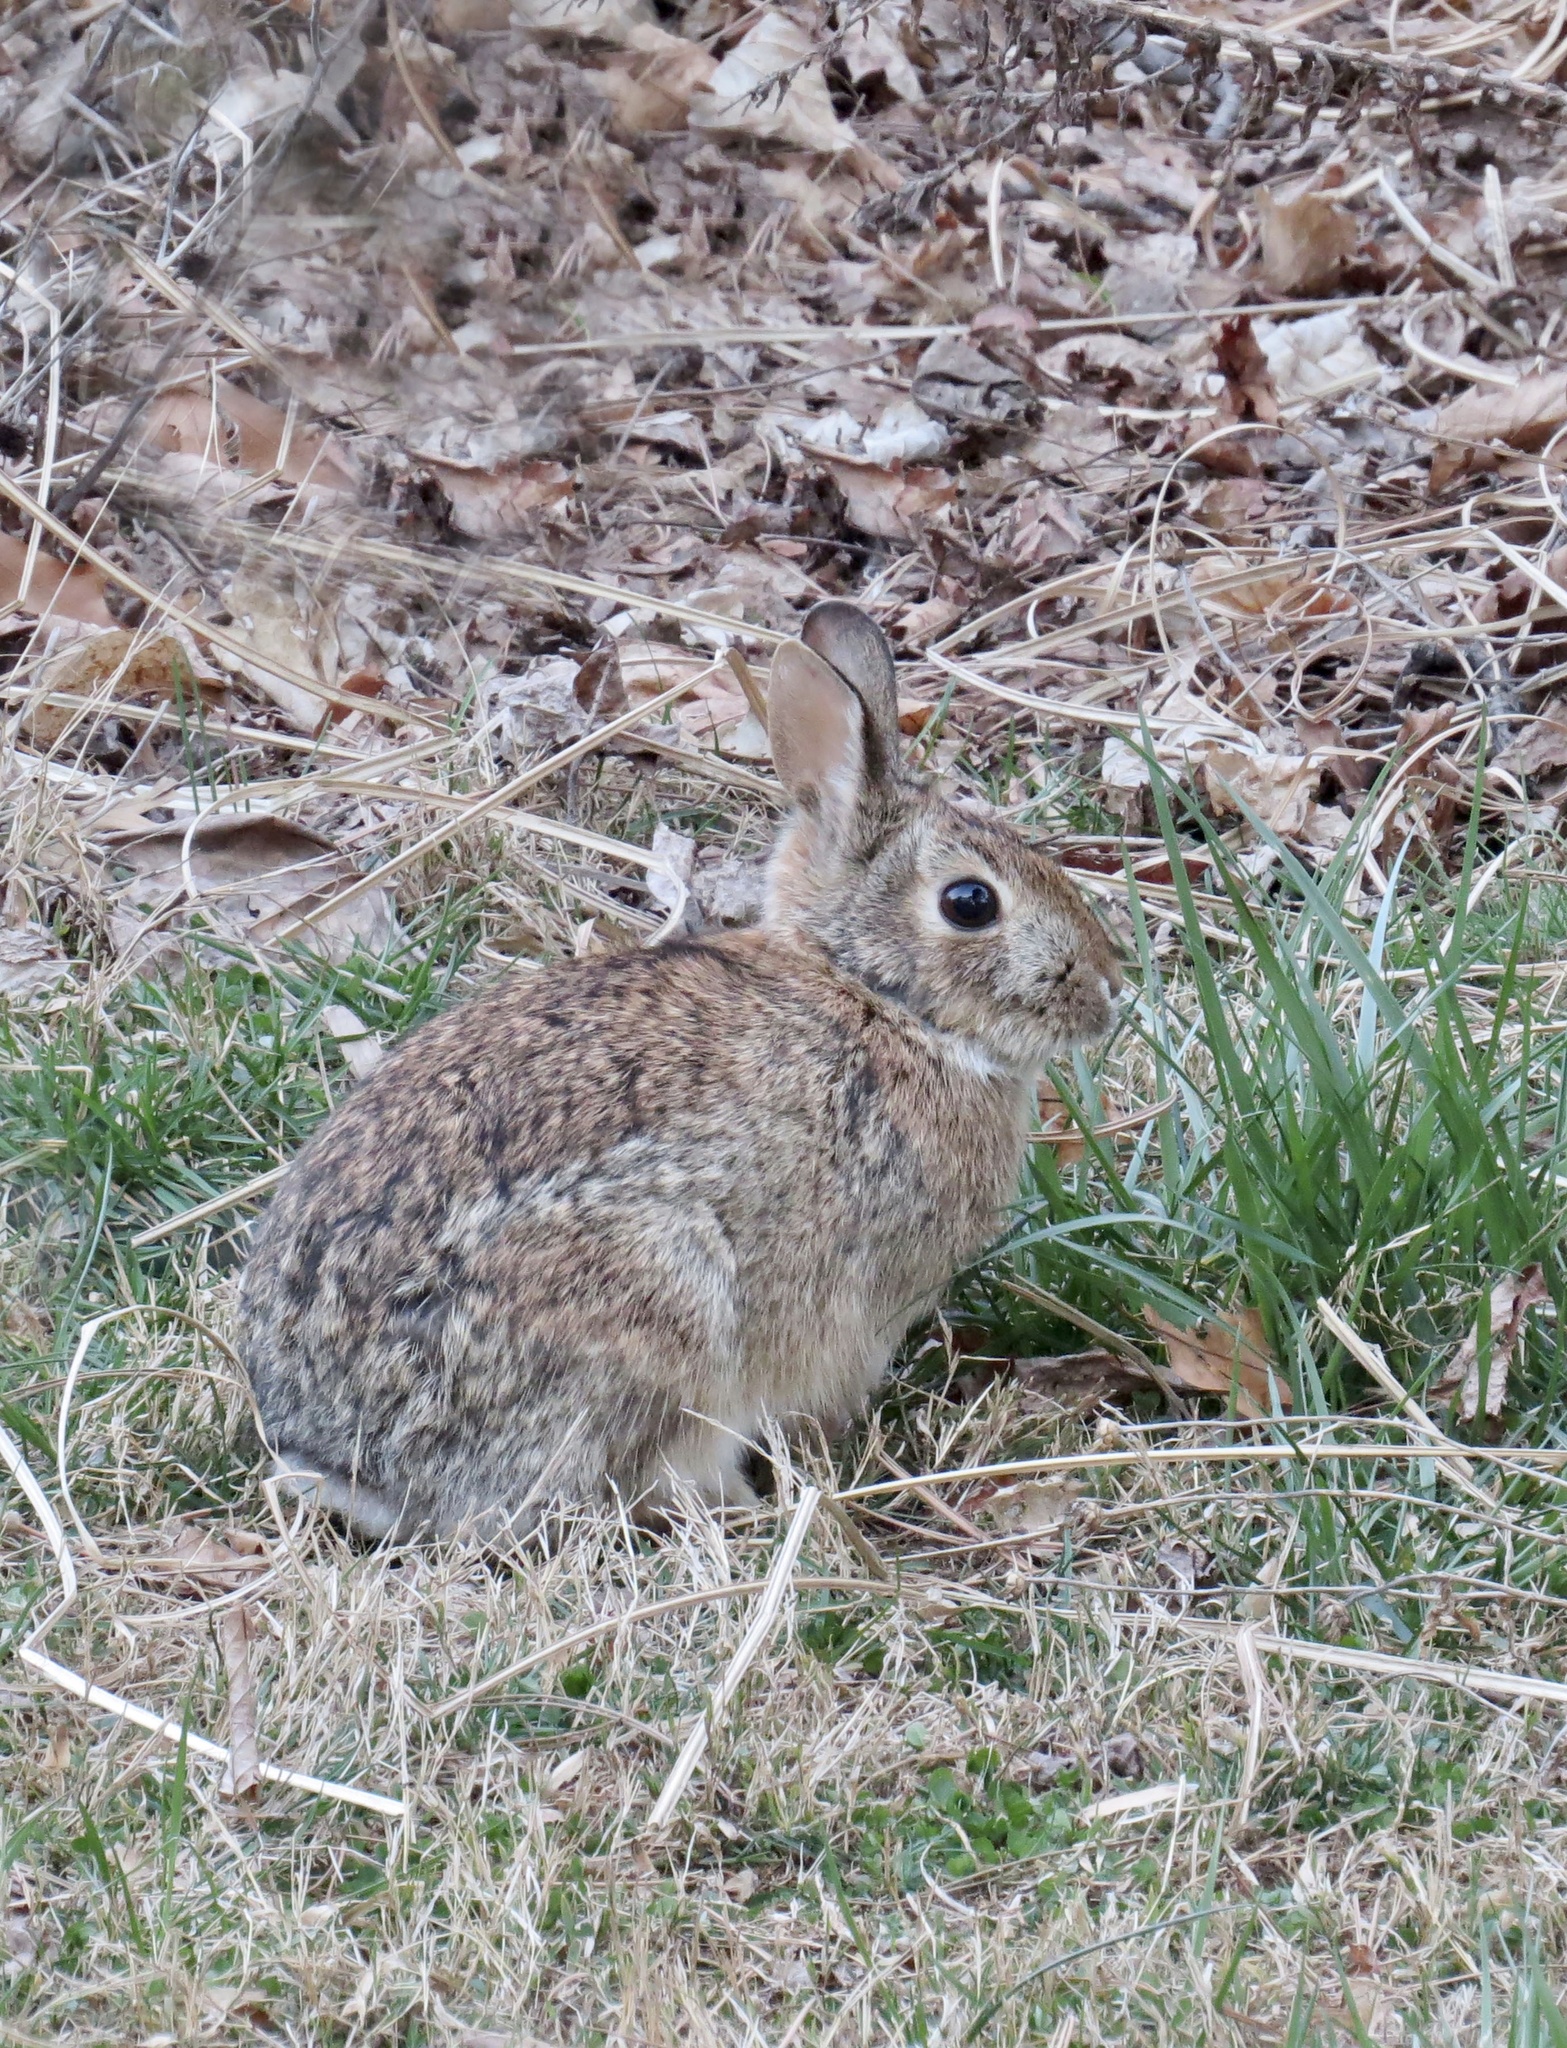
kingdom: Animalia
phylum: Chordata
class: Mammalia
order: Lagomorpha
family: Leporidae
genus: Sylvilagus
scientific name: Sylvilagus floridanus
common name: Eastern cottontail
